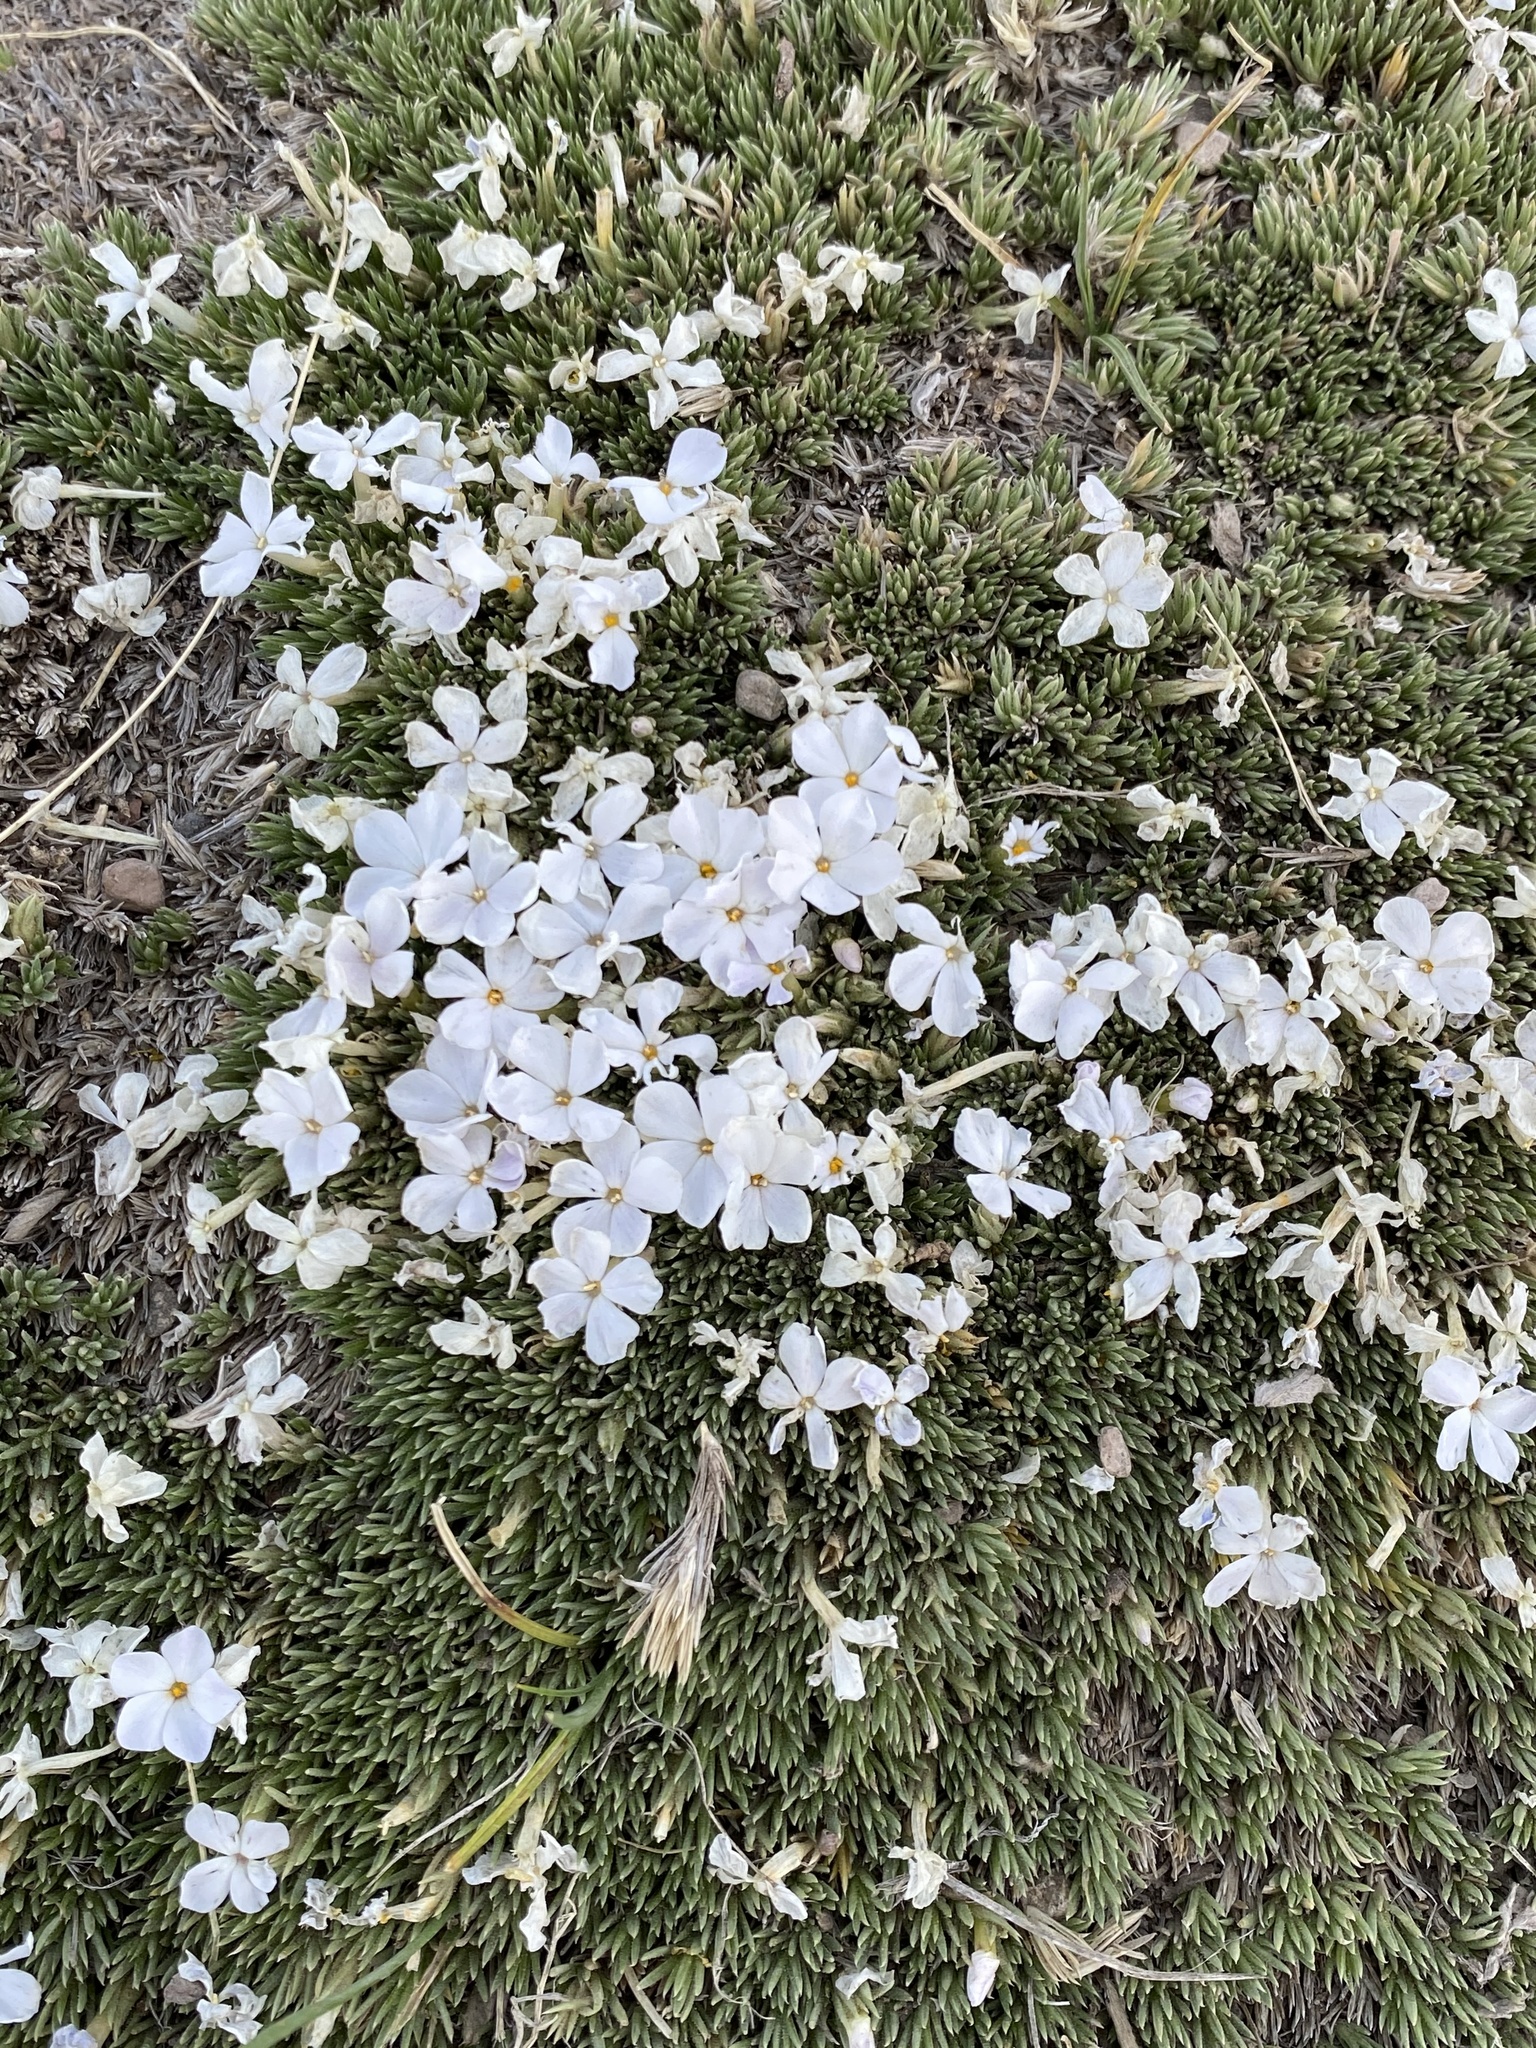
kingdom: Plantae
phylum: Tracheophyta
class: Magnoliopsida
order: Ericales
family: Polemoniaceae
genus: Phlox
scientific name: Phlox condensata
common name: Compact phlox
